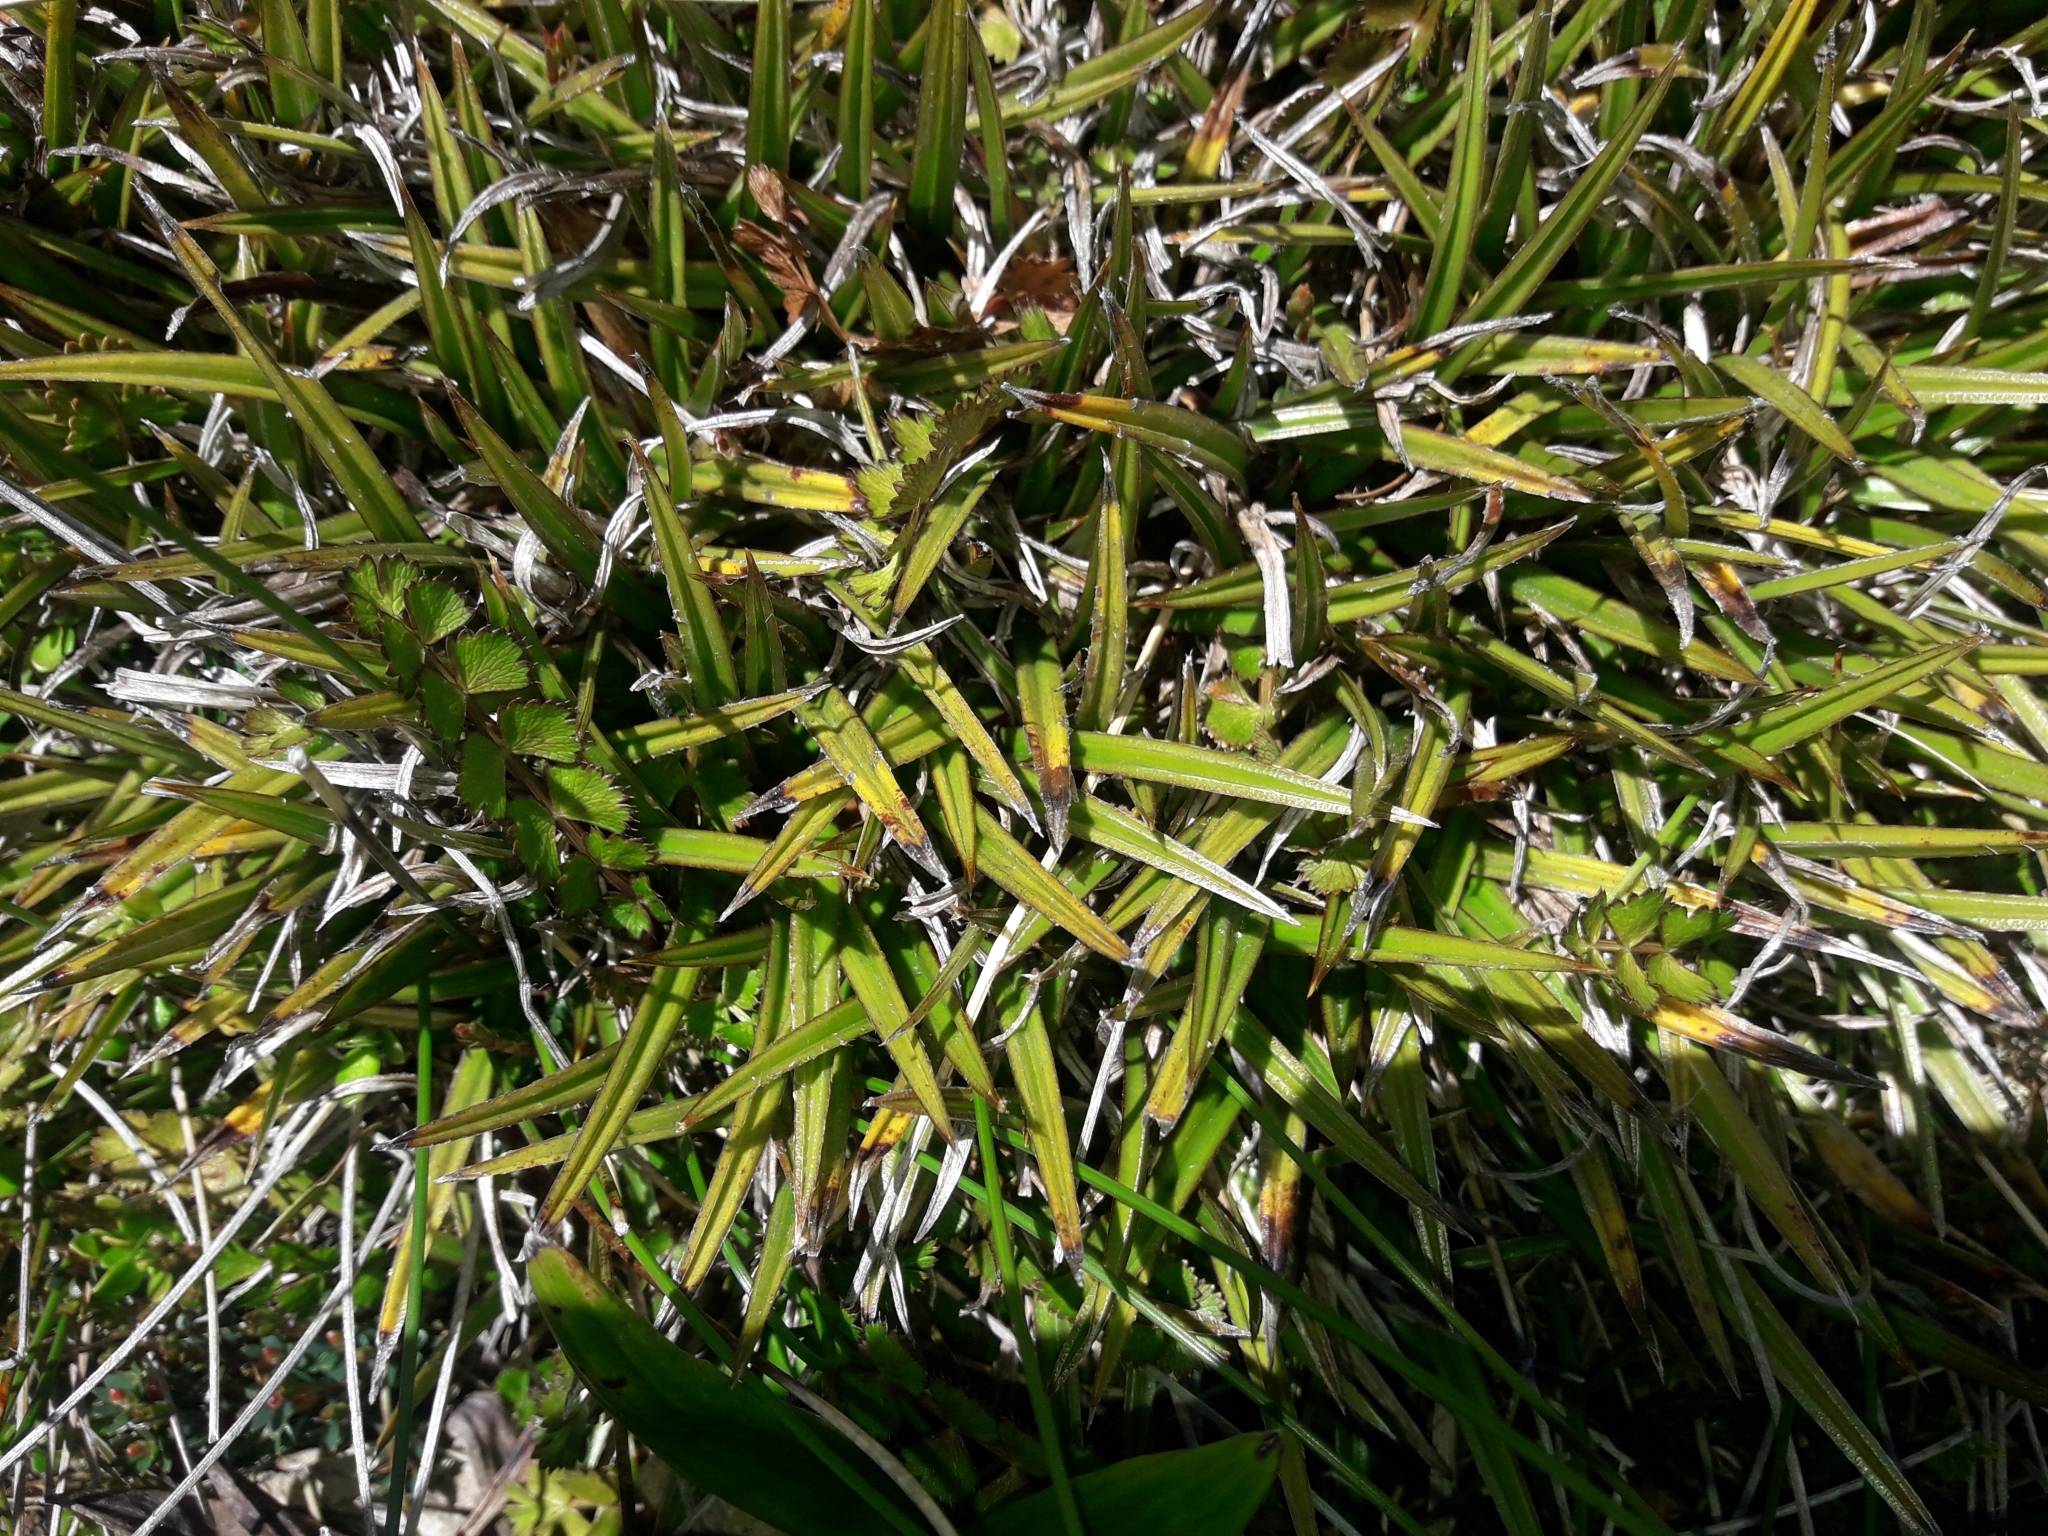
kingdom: Plantae
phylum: Tracheophyta
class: Liliopsida
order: Asparagales
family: Asteliaceae
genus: Astelia
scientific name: Astelia linearis
